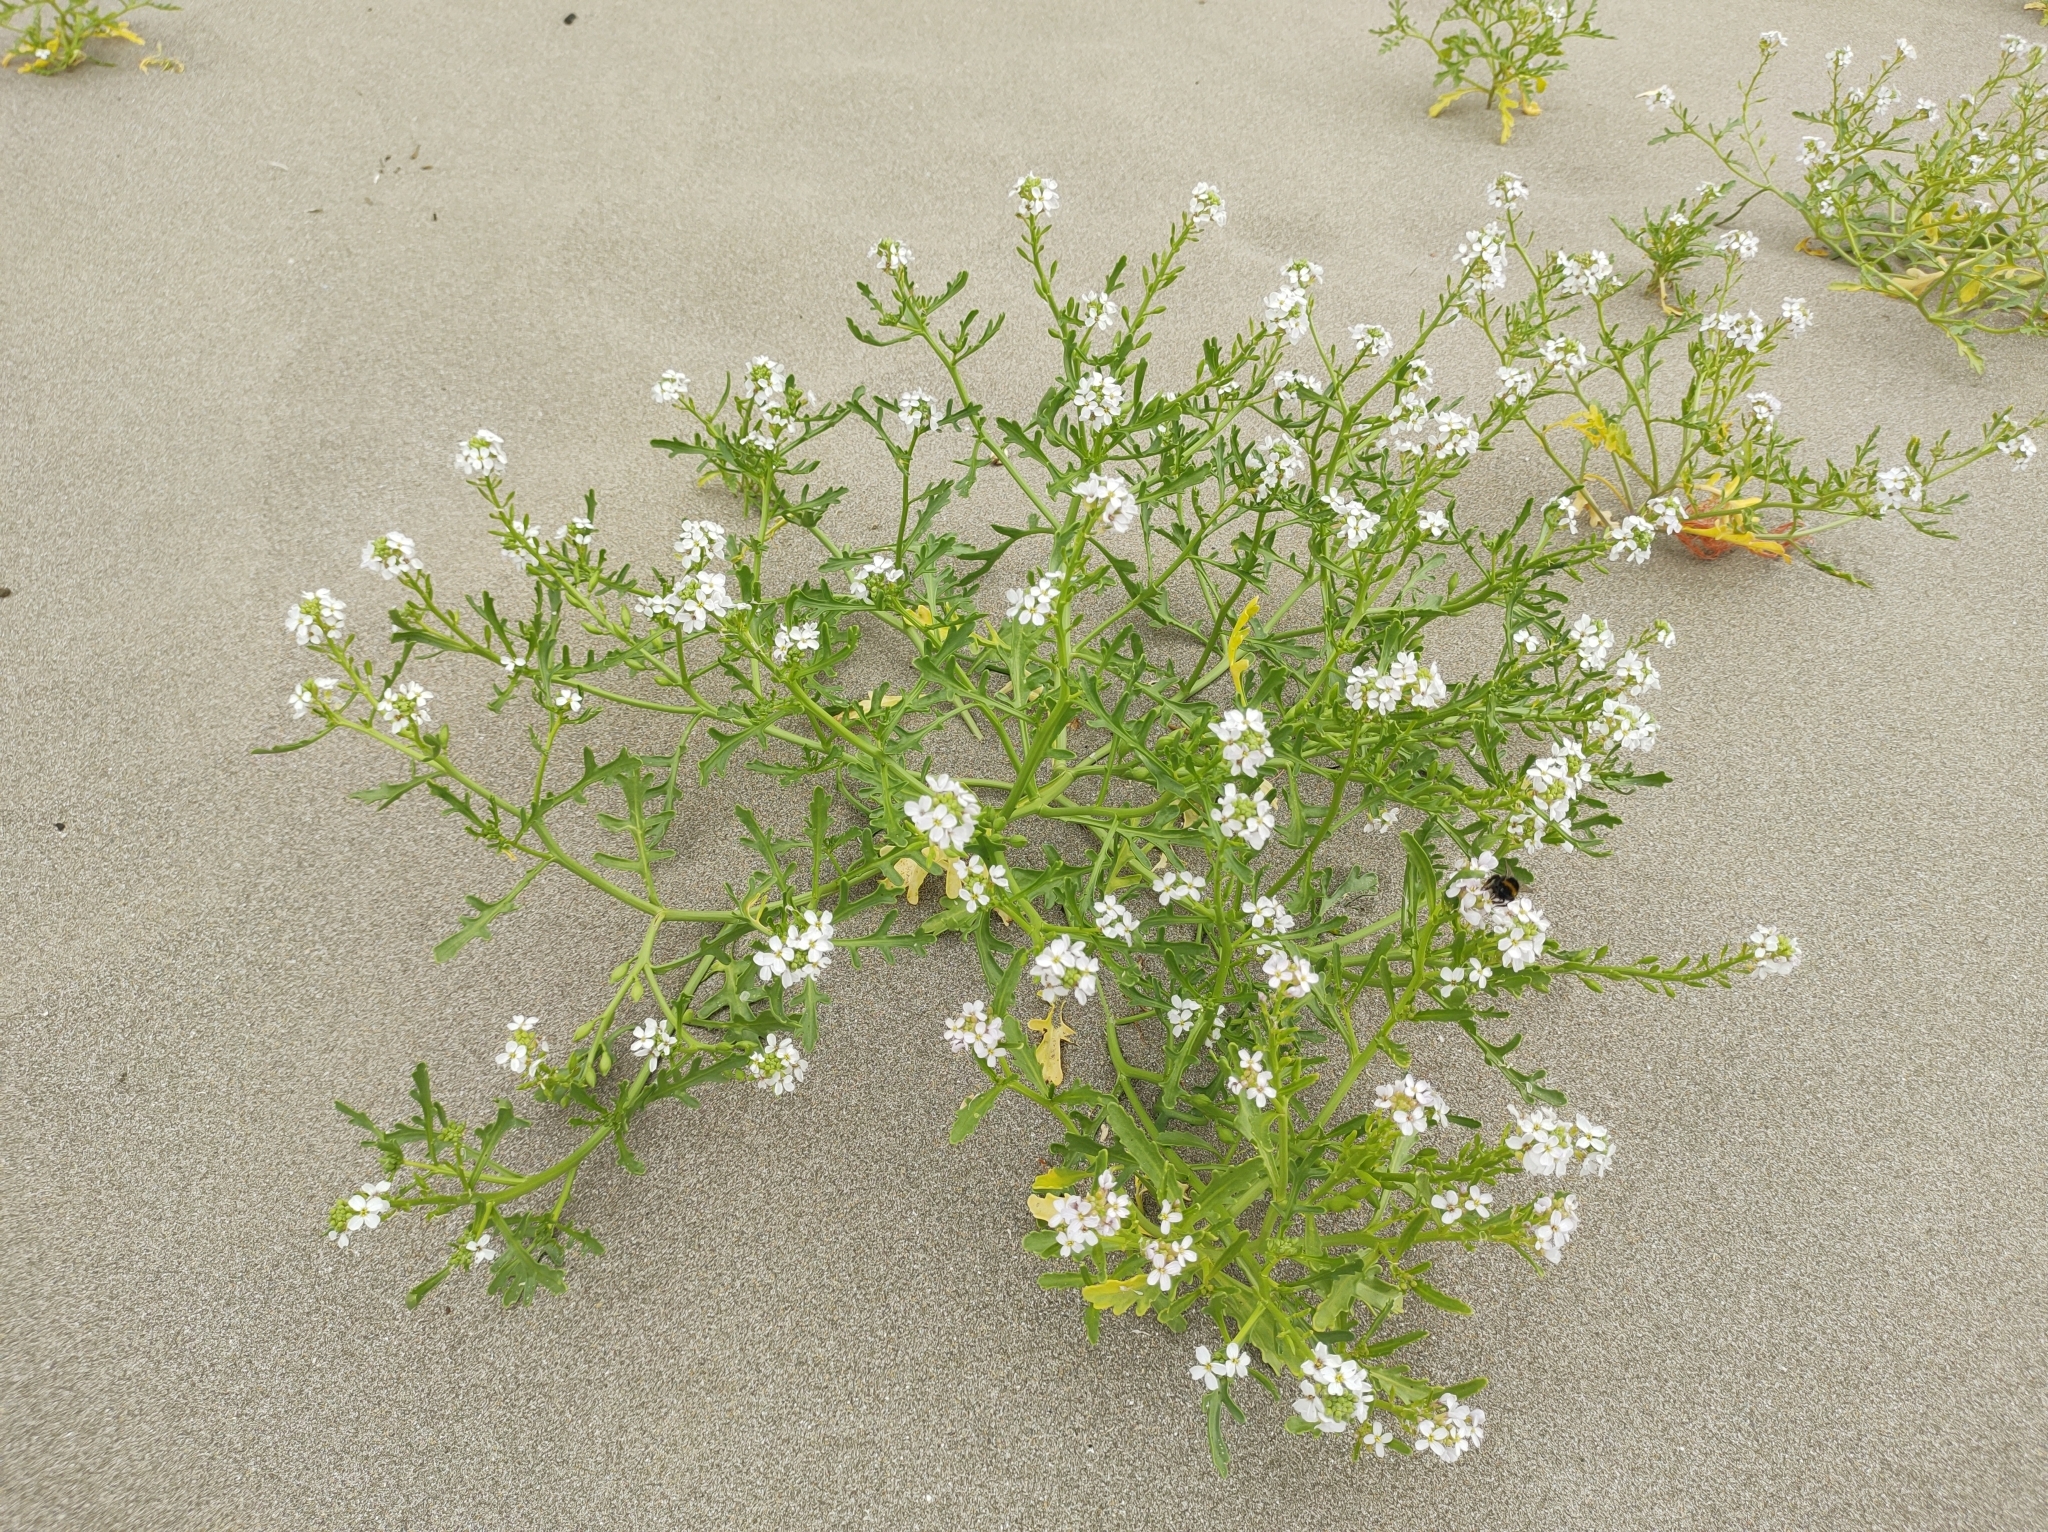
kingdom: Plantae
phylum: Tracheophyta
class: Magnoliopsida
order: Brassicales
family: Brassicaceae
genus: Cakile
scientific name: Cakile maritima
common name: Sea rocket
